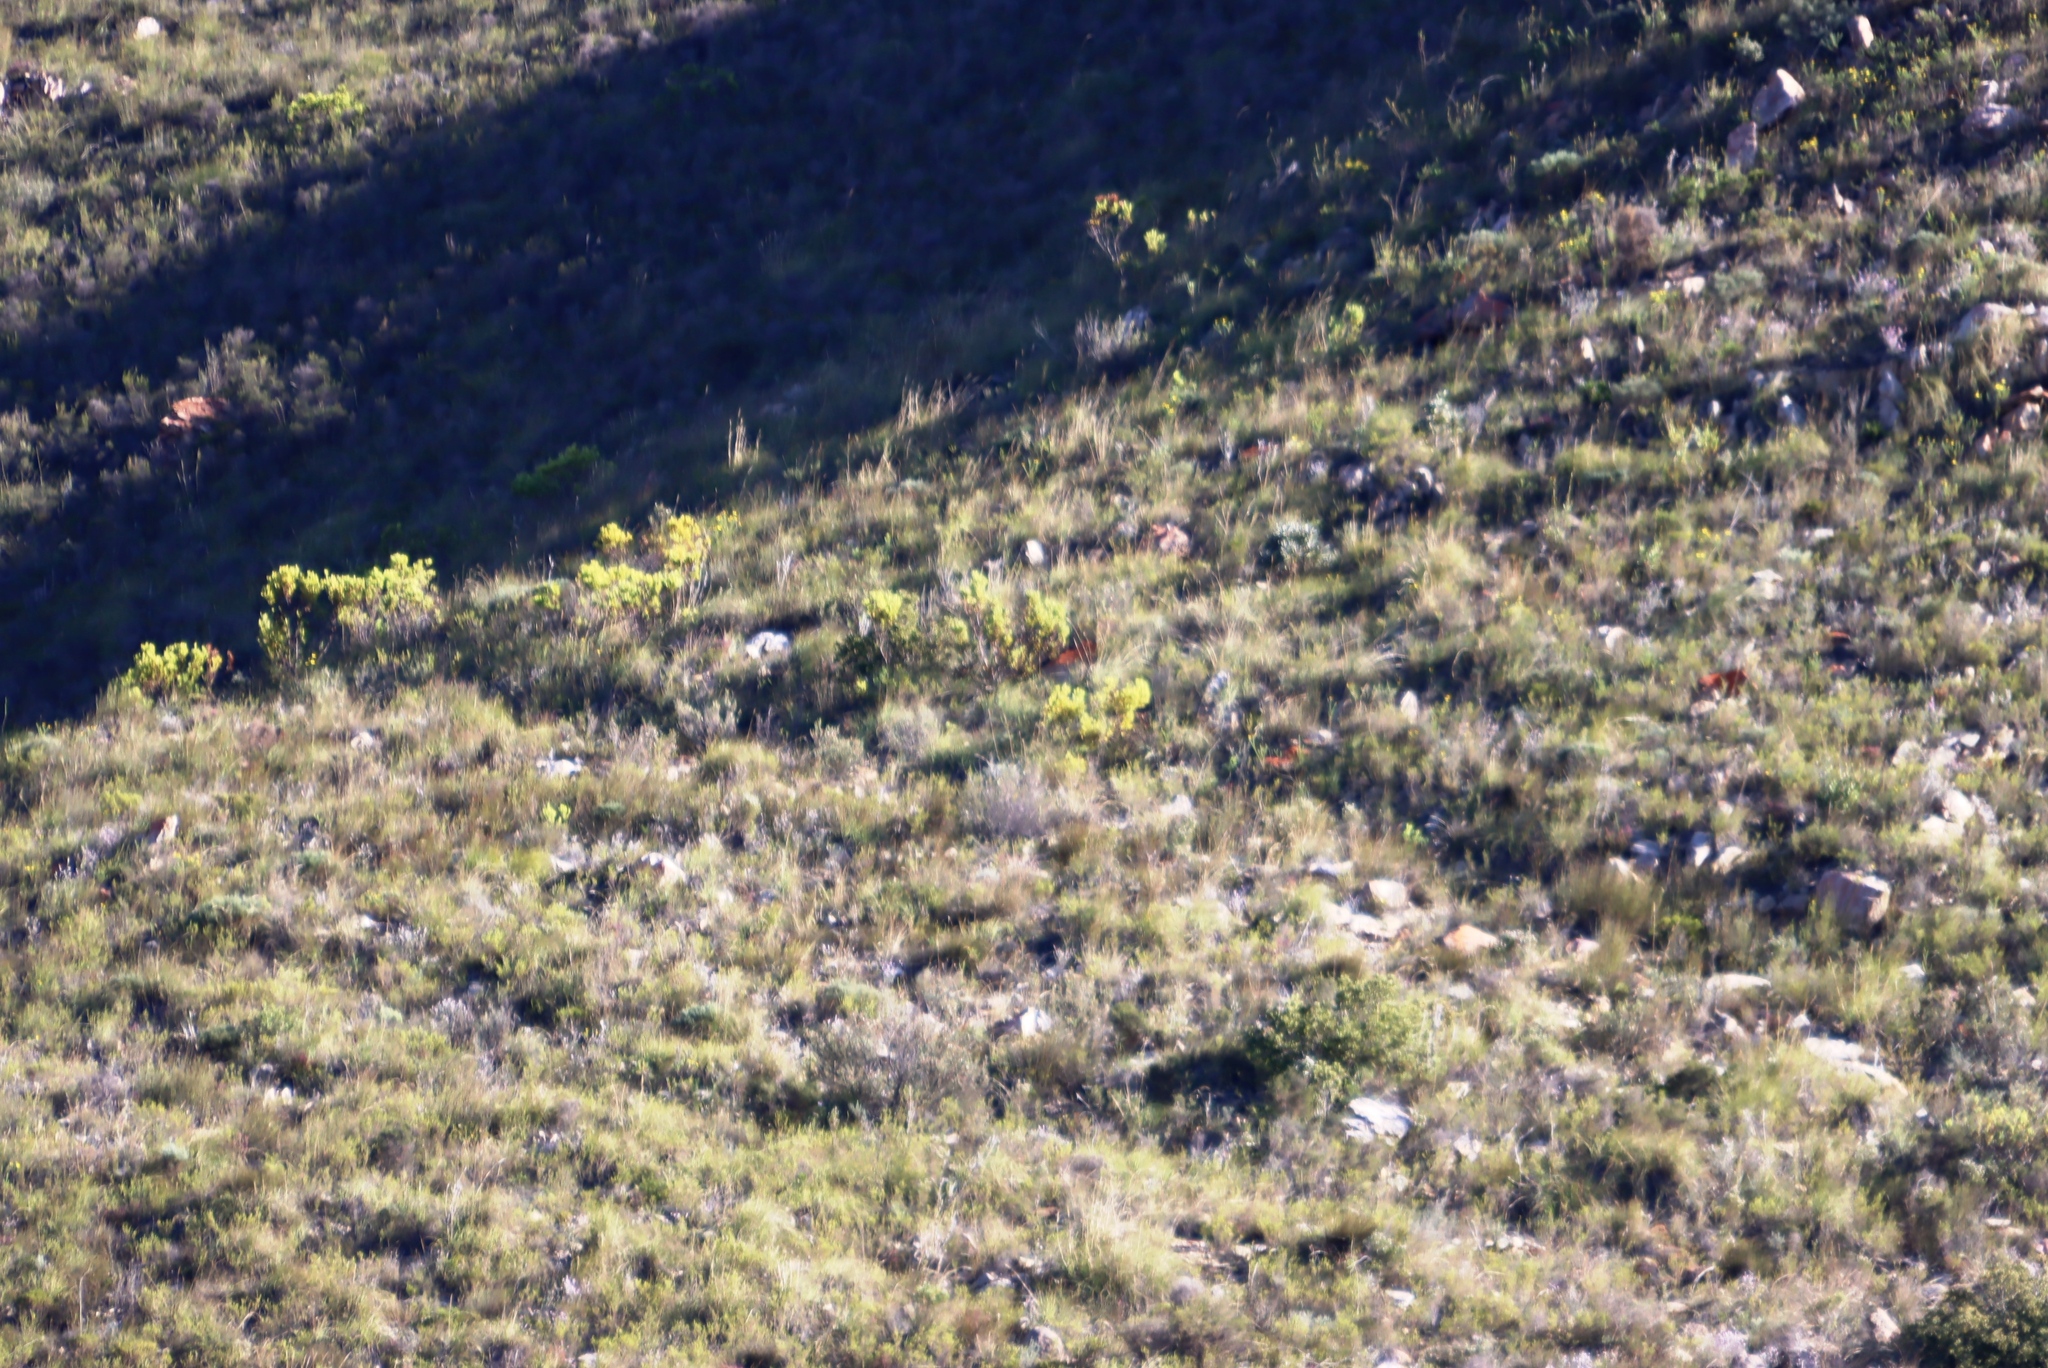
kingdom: Plantae
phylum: Tracheophyta
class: Magnoliopsida
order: Proteales
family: Proteaceae
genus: Leucadendron
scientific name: Leucadendron salignum
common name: Common sunshine conebush
